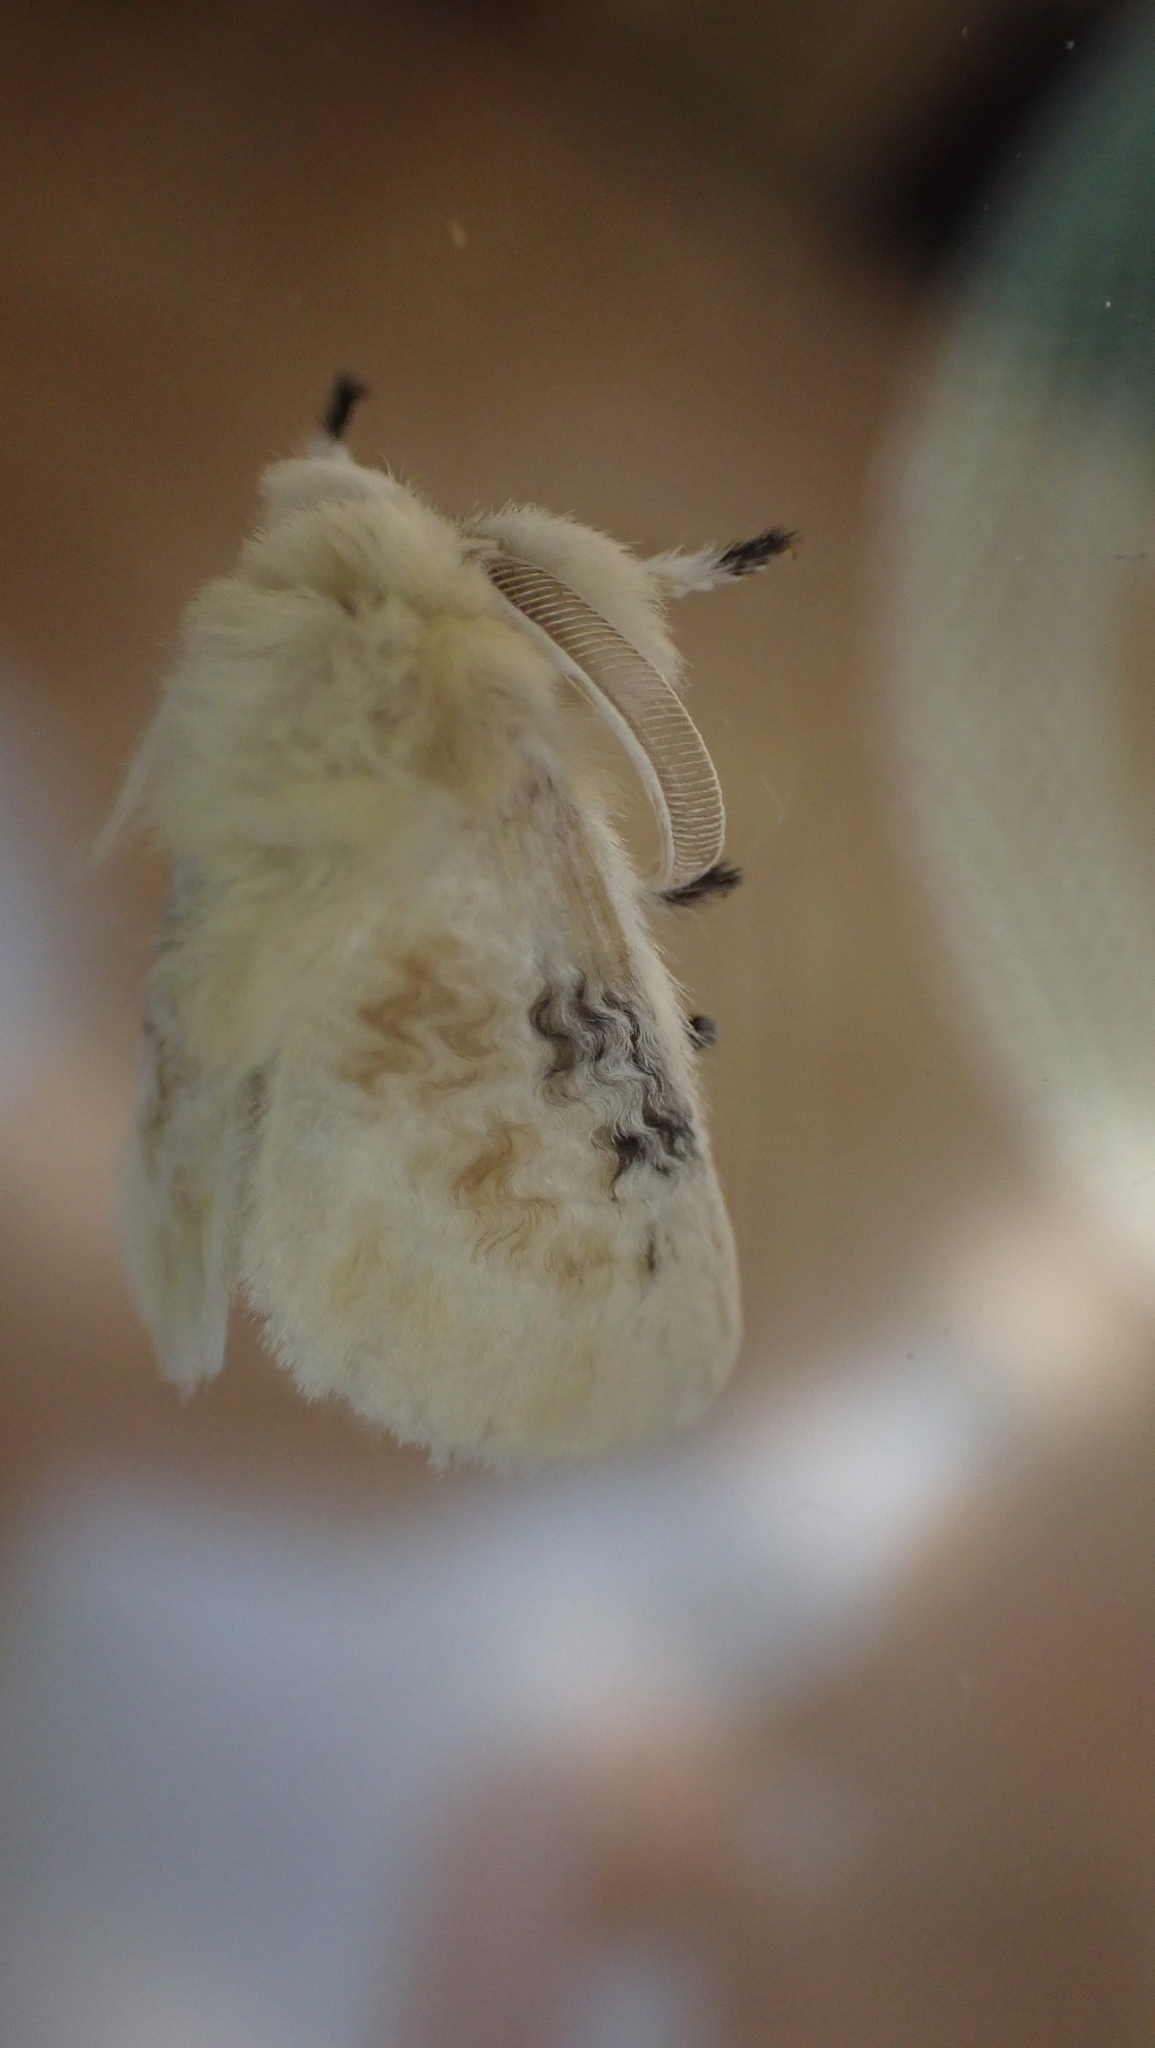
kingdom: Animalia
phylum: Arthropoda
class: Insecta
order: Lepidoptera
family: Megalopygidae
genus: Megalopyge
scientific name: Megalopyge crispata
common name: Black-waved flannel moth
